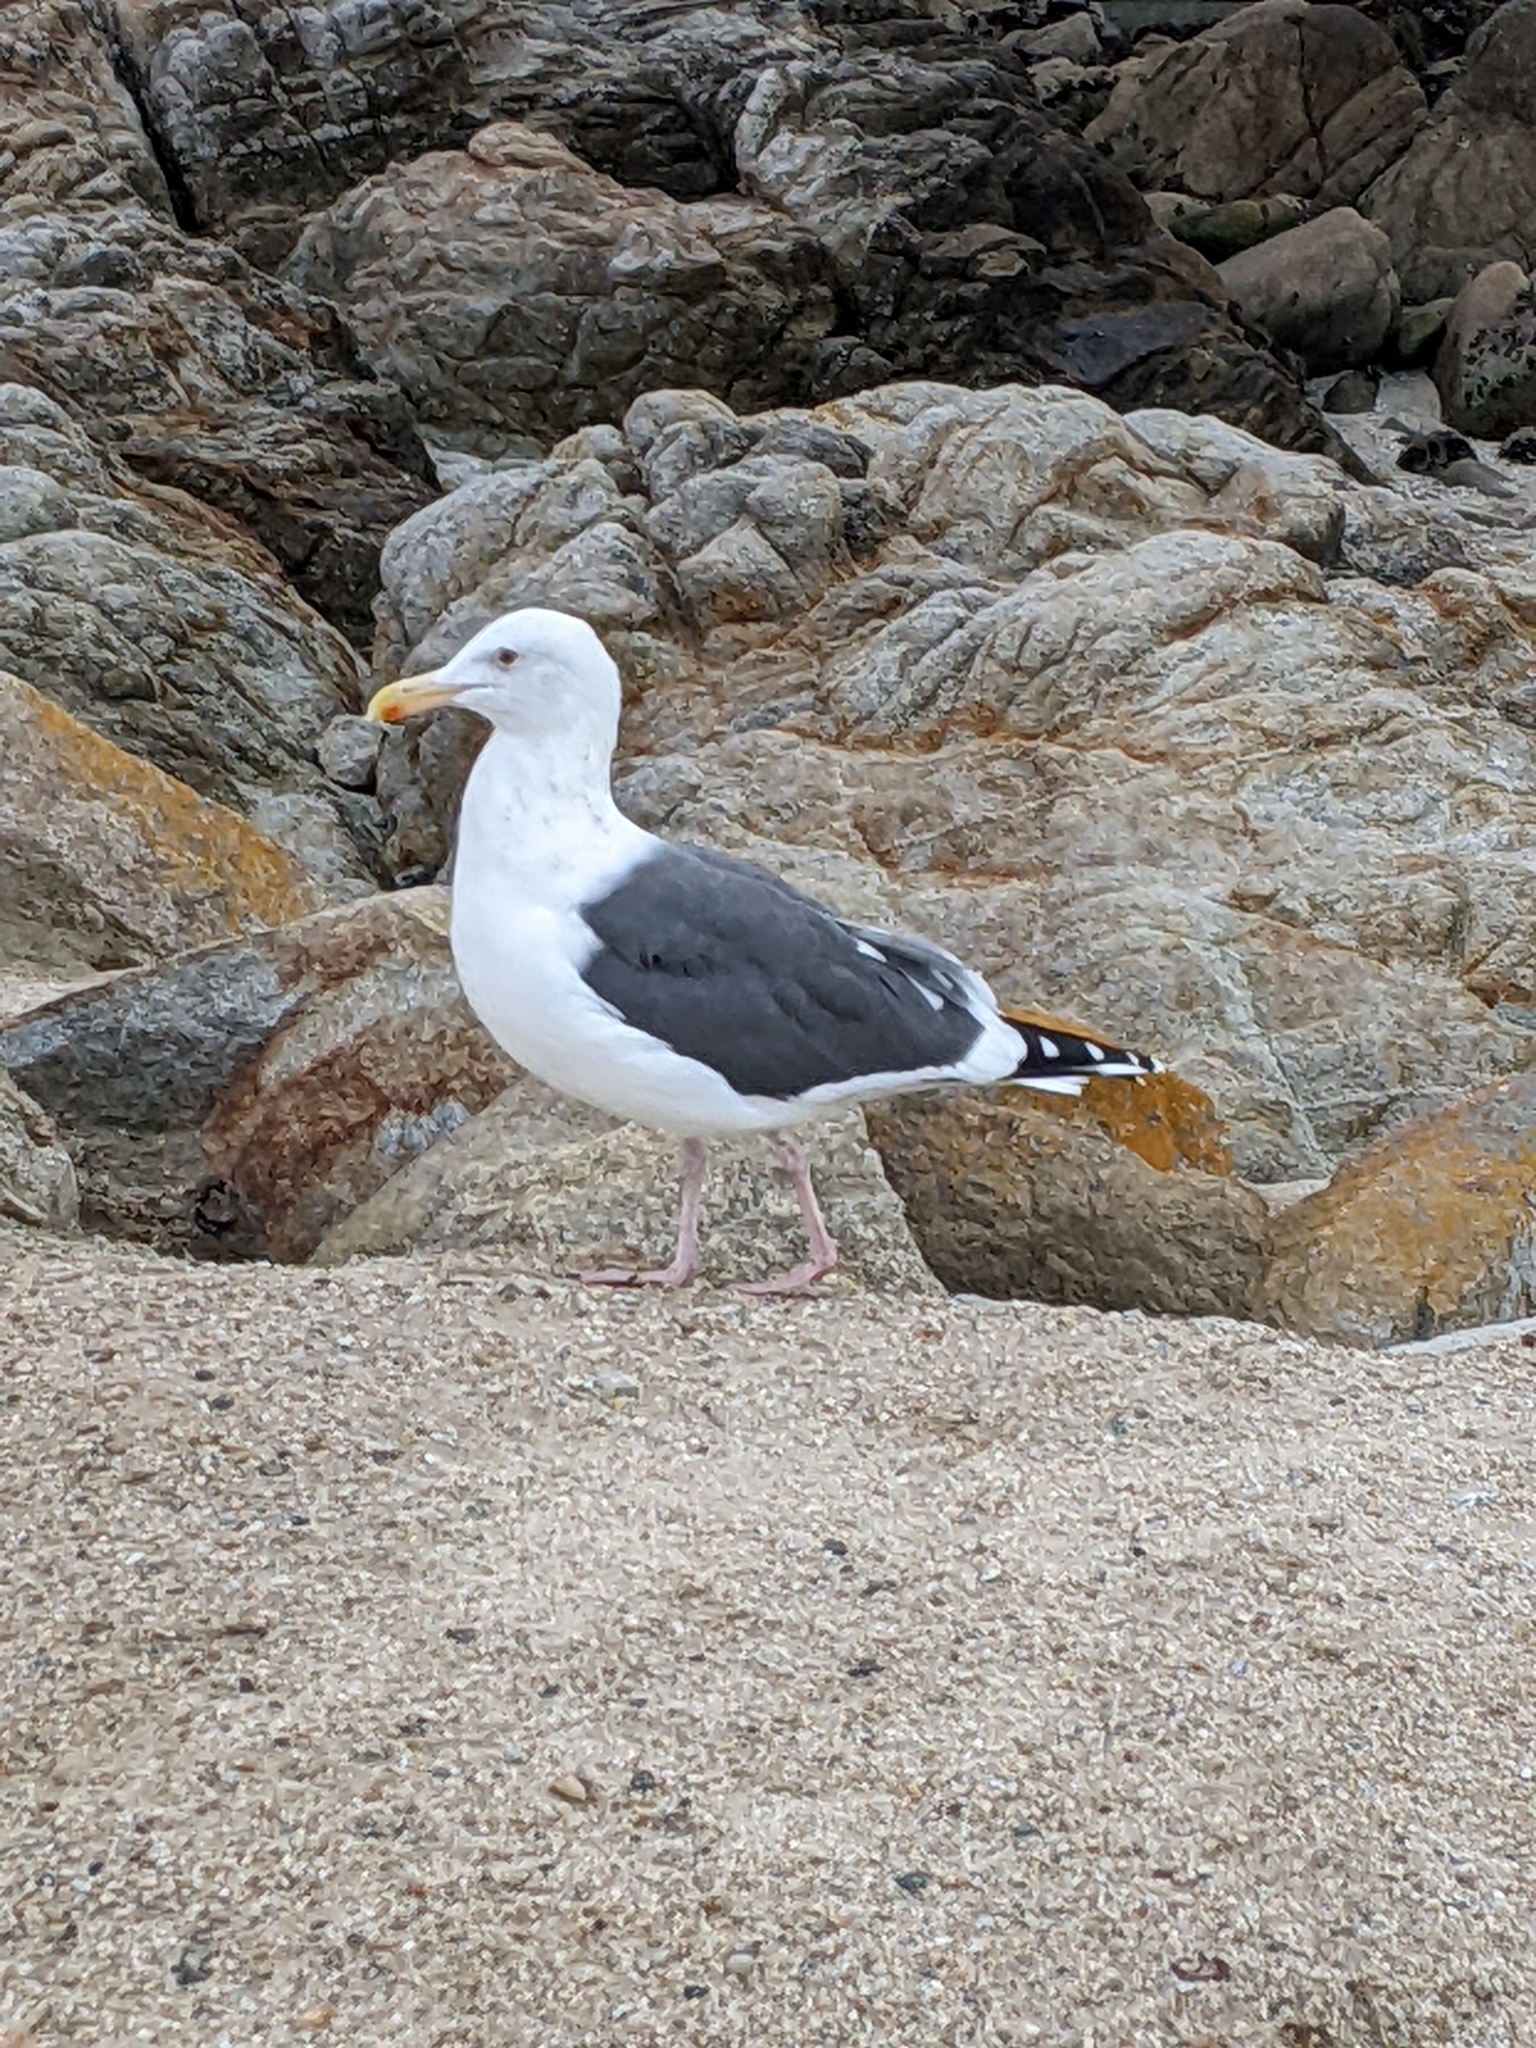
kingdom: Animalia
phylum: Chordata
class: Aves
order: Charadriiformes
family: Laridae
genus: Larus
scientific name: Larus occidentalis
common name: Western gull
